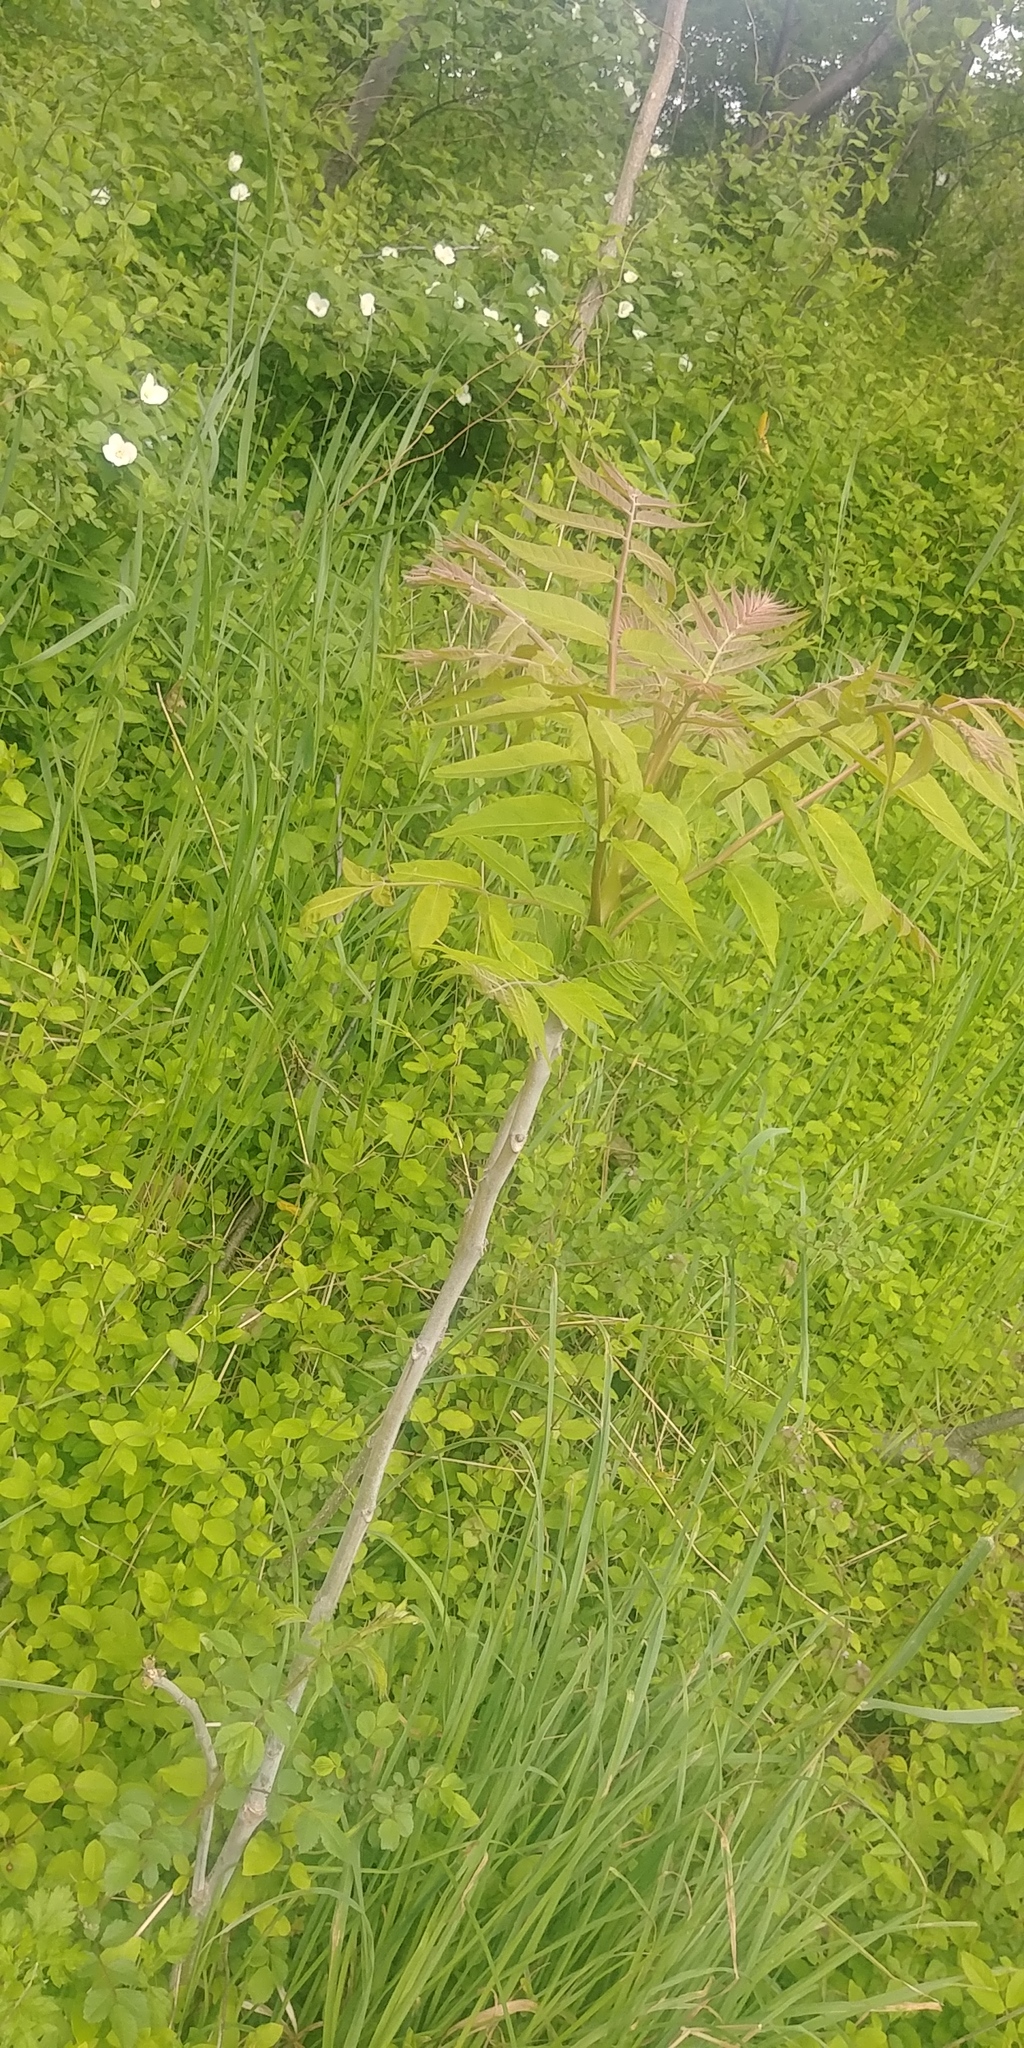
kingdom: Plantae
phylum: Tracheophyta
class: Magnoliopsida
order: Sapindales
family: Simaroubaceae
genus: Ailanthus
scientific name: Ailanthus altissima
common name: Tree-of-heaven
